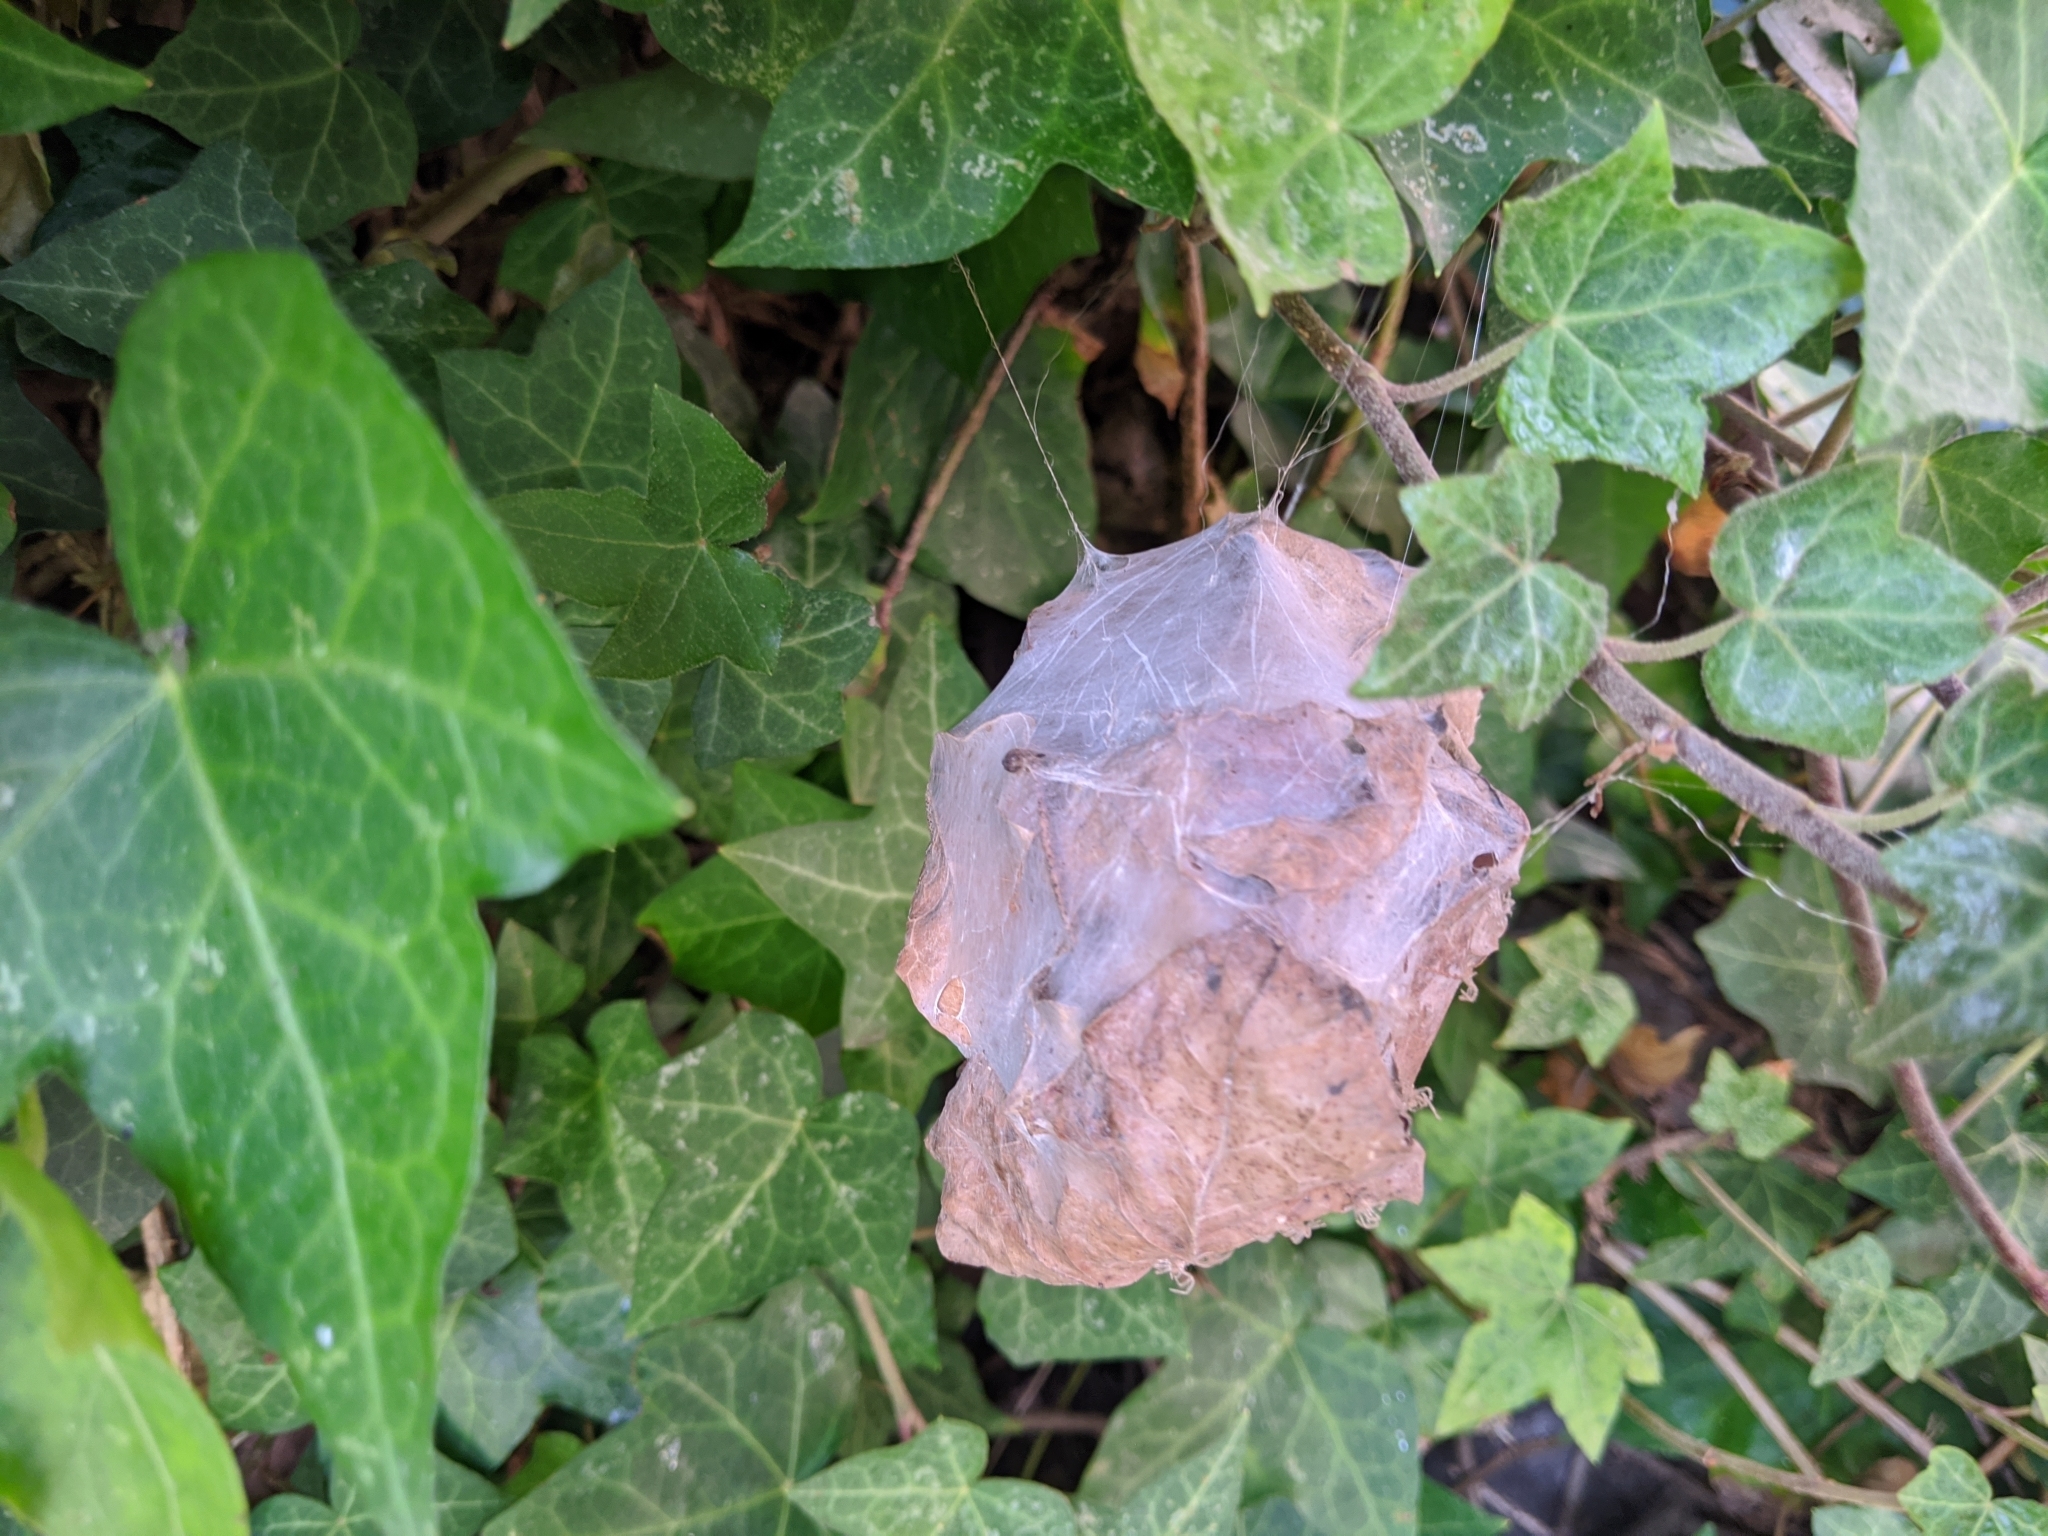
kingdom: Animalia
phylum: Arthropoda
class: Arachnida
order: Araneae
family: Sparassidae
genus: Palystes
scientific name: Palystes superciliosus
